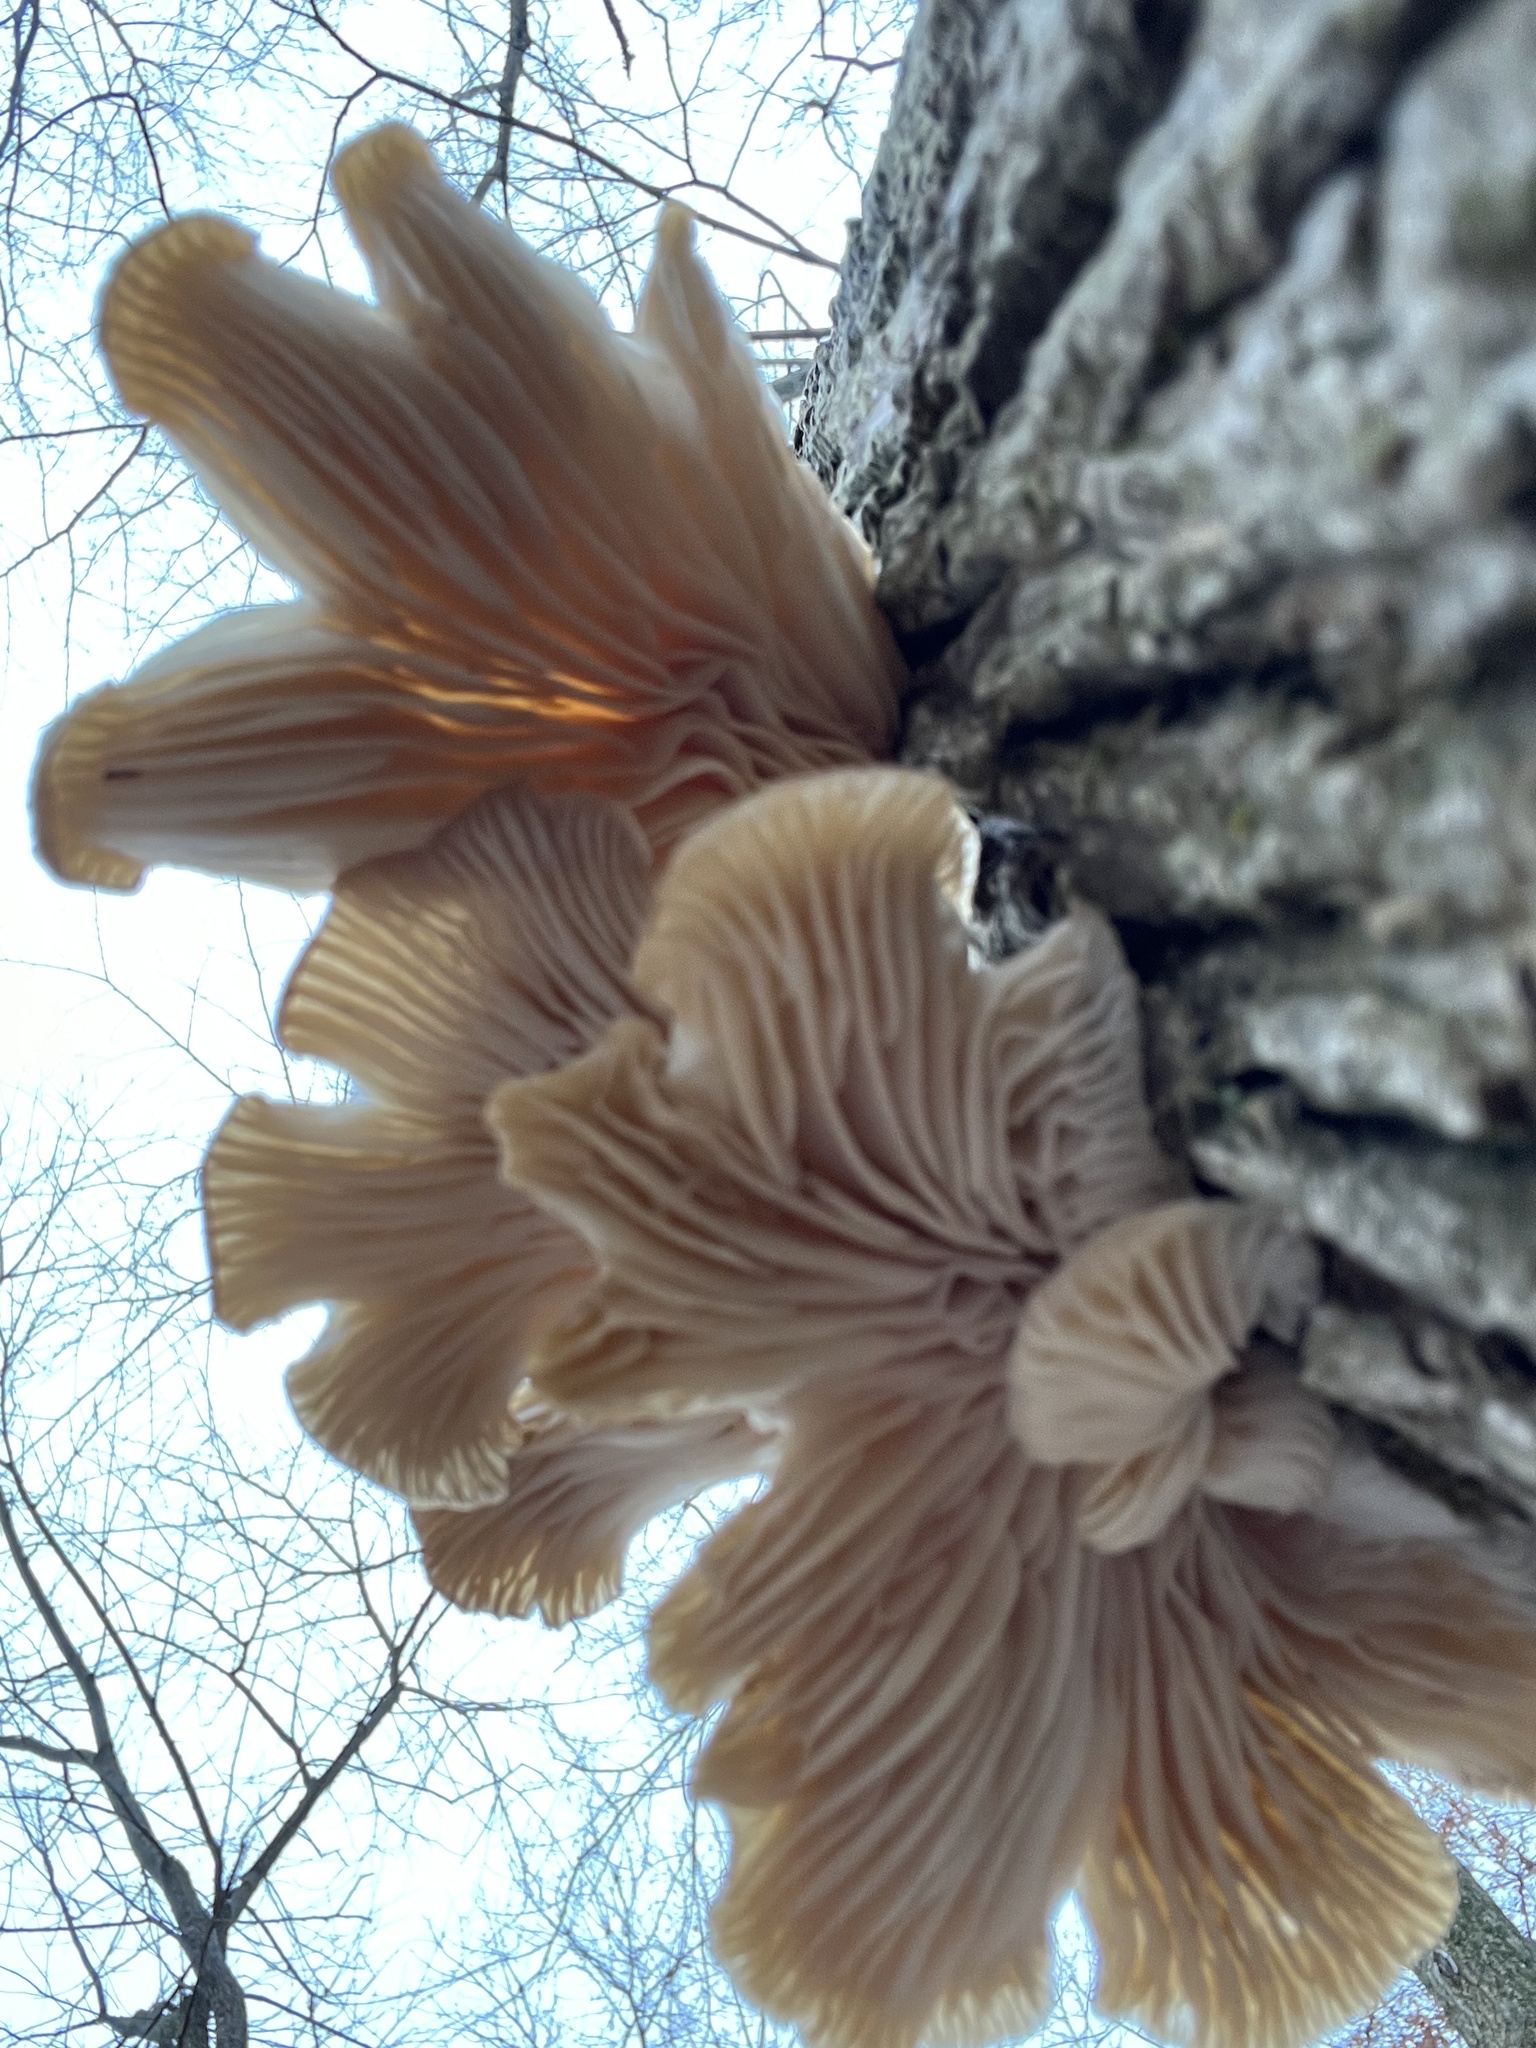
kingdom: Fungi
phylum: Basidiomycota
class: Agaricomycetes
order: Agaricales
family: Pleurotaceae
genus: Pleurotus
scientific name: Pleurotus ostreatus
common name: Oyster mushroom
